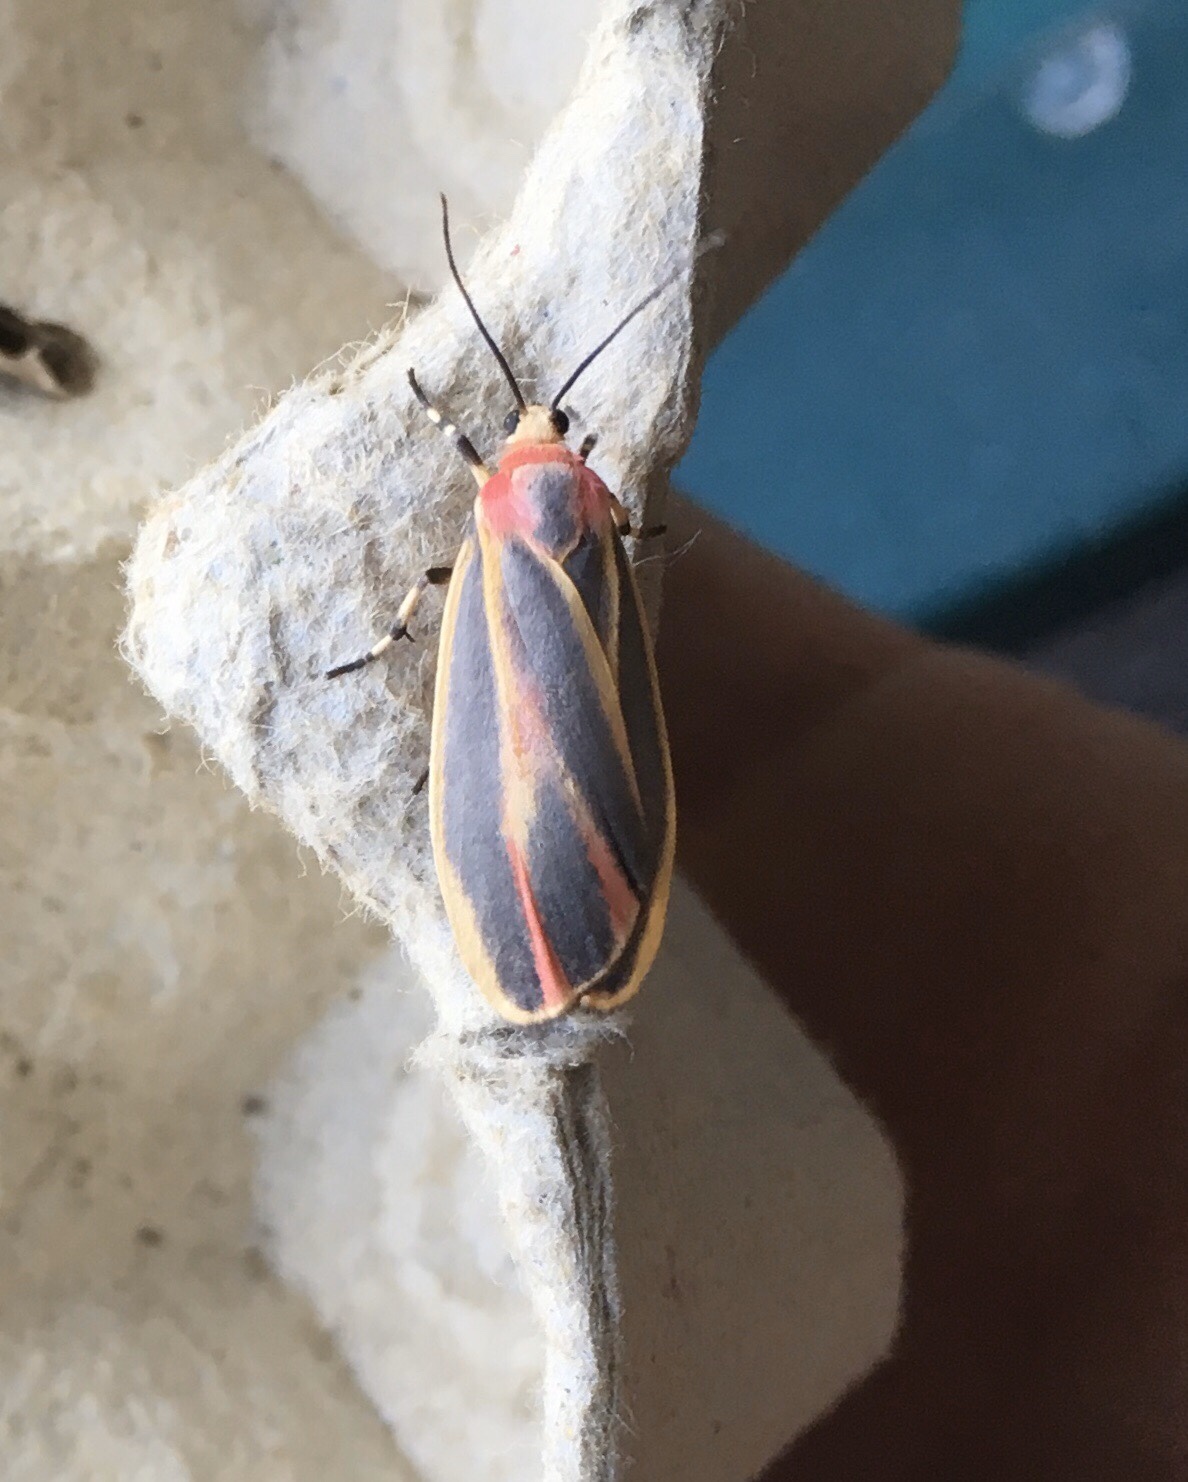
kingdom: Animalia
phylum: Arthropoda
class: Insecta
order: Lepidoptera
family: Erebidae
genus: Hypoprepia
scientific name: Hypoprepia fucosa
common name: Painted lichen moth
